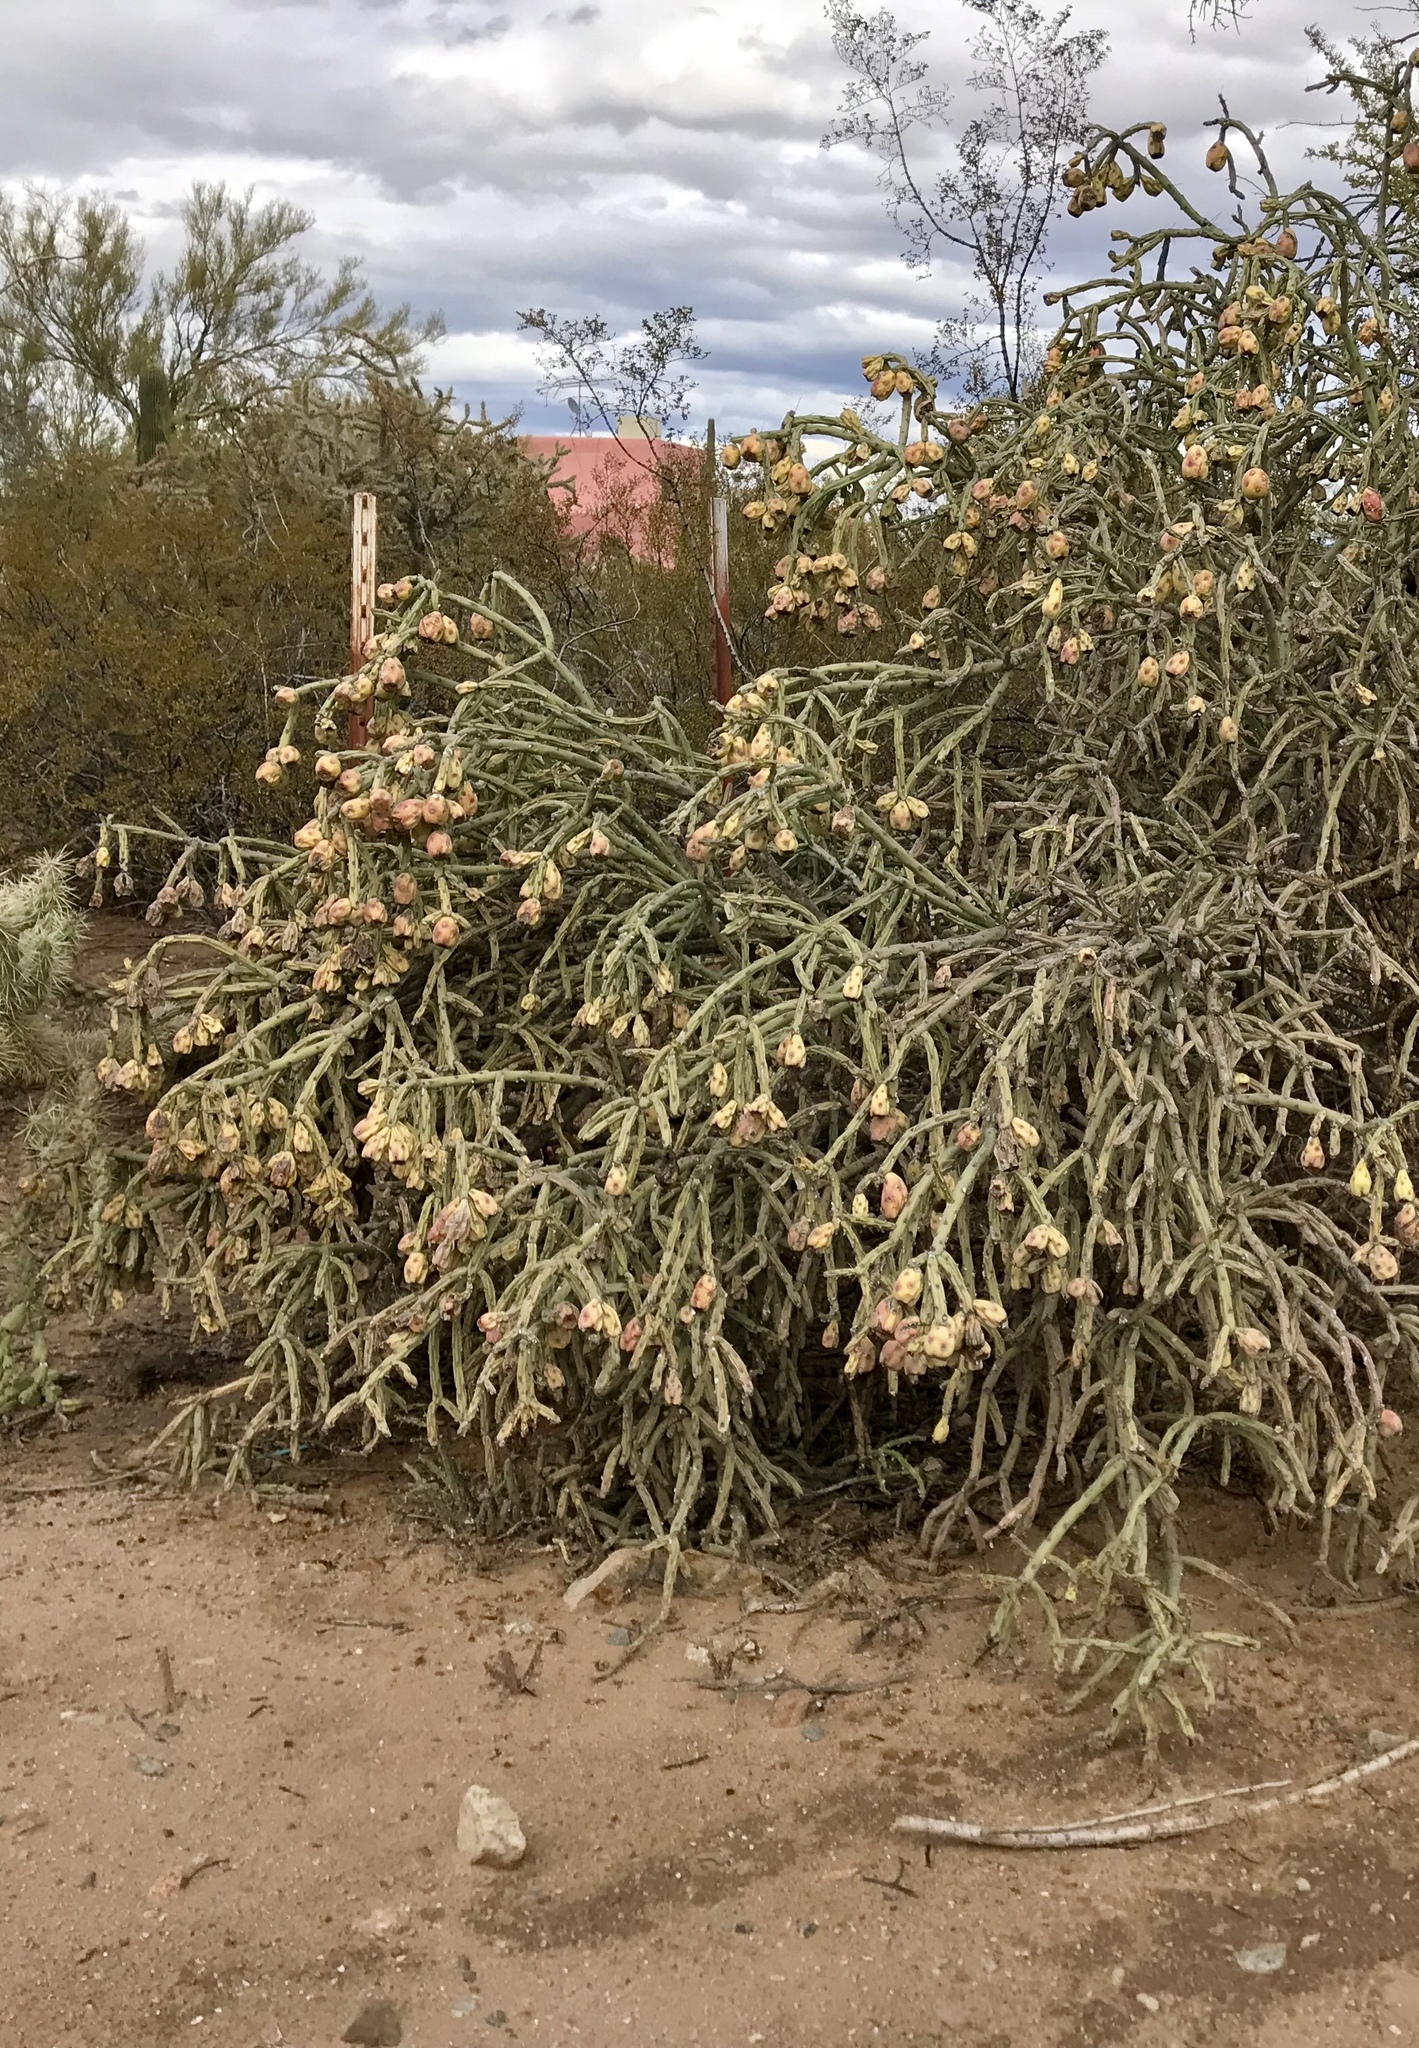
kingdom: Plantae
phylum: Tracheophyta
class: Magnoliopsida
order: Caryophyllales
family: Cactaceae
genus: Cylindropuntia
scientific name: Cylindropuntia arbuscula
